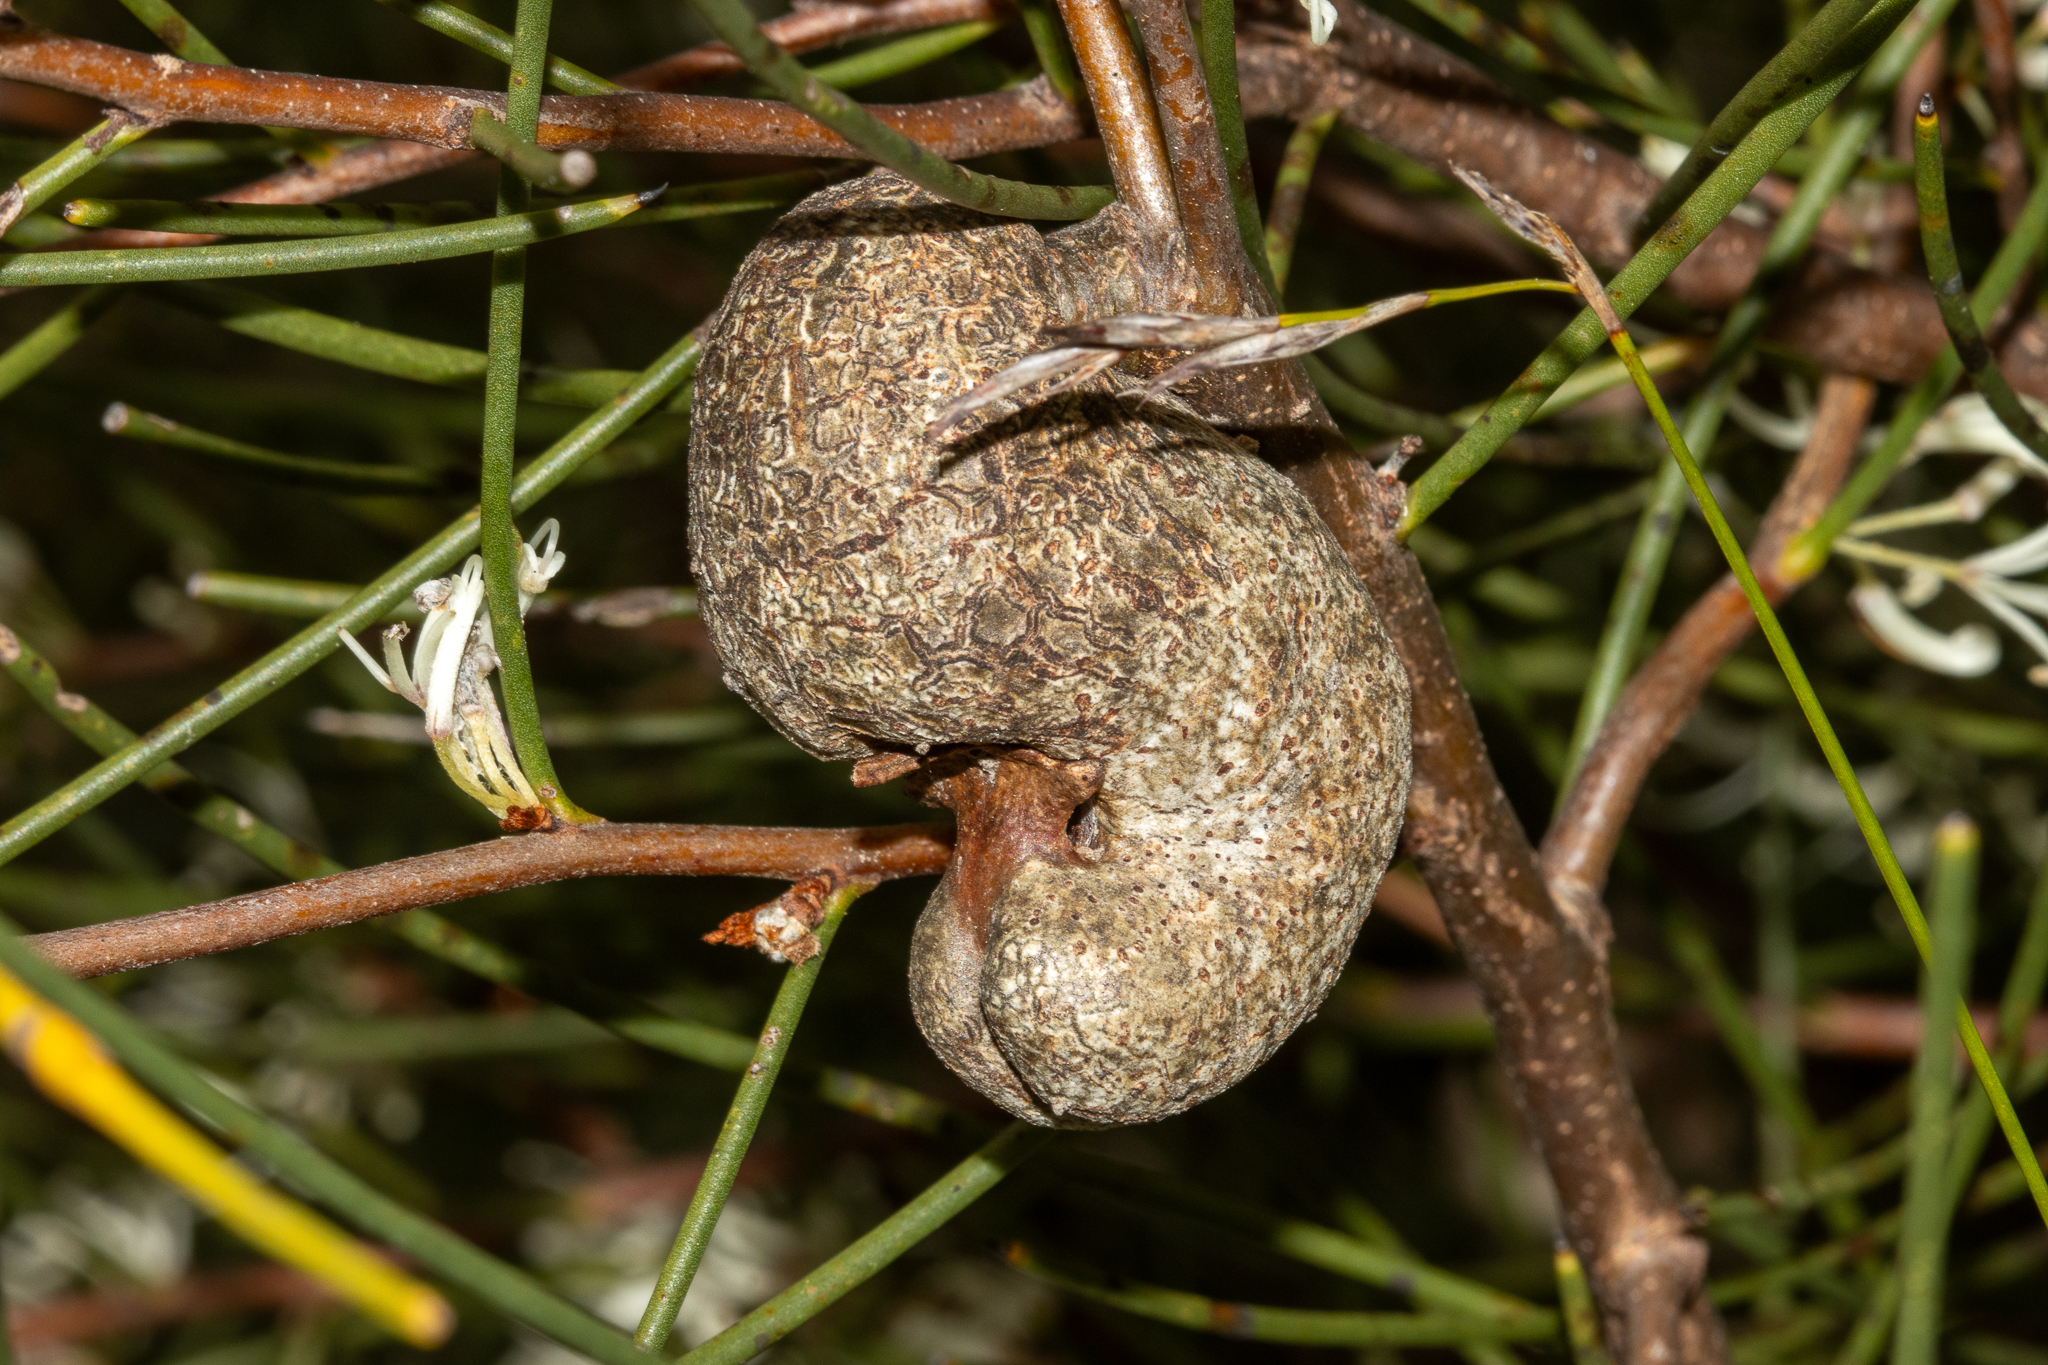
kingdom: Plantae
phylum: Tracheophyta
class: Magnoliopsida
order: Proteales
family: Proteaceae
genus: Hakea
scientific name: Hakea rostrata
